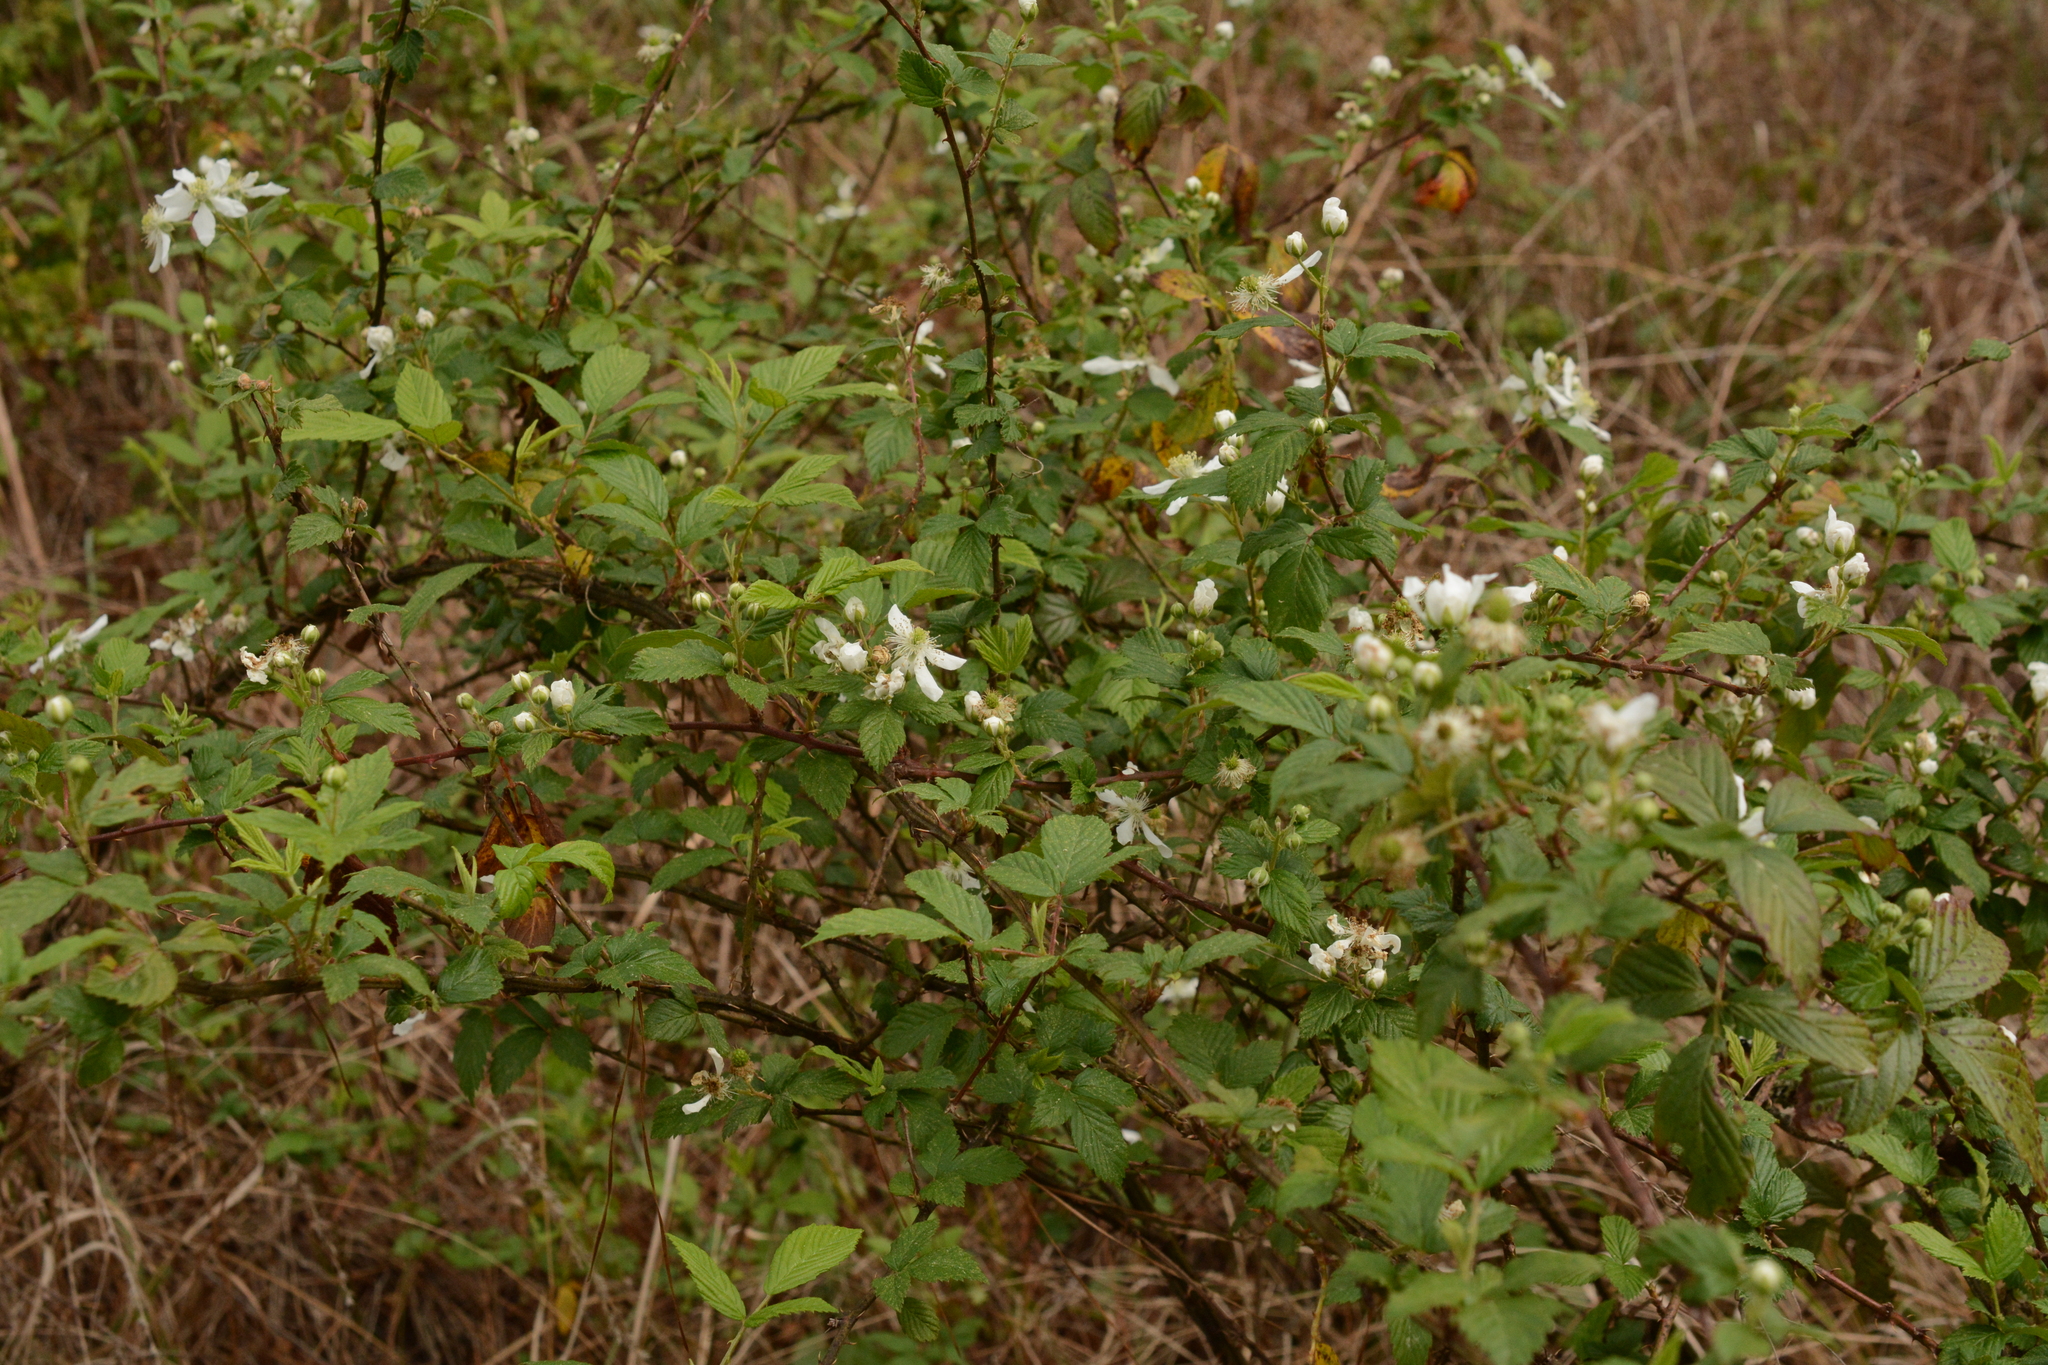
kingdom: Plantae
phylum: Tracheophyta
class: Magnoliopsida
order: Rosales
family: Rosaceae
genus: Rubus
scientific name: Rubus pensilvanicus
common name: Pennsylvania blackberry
